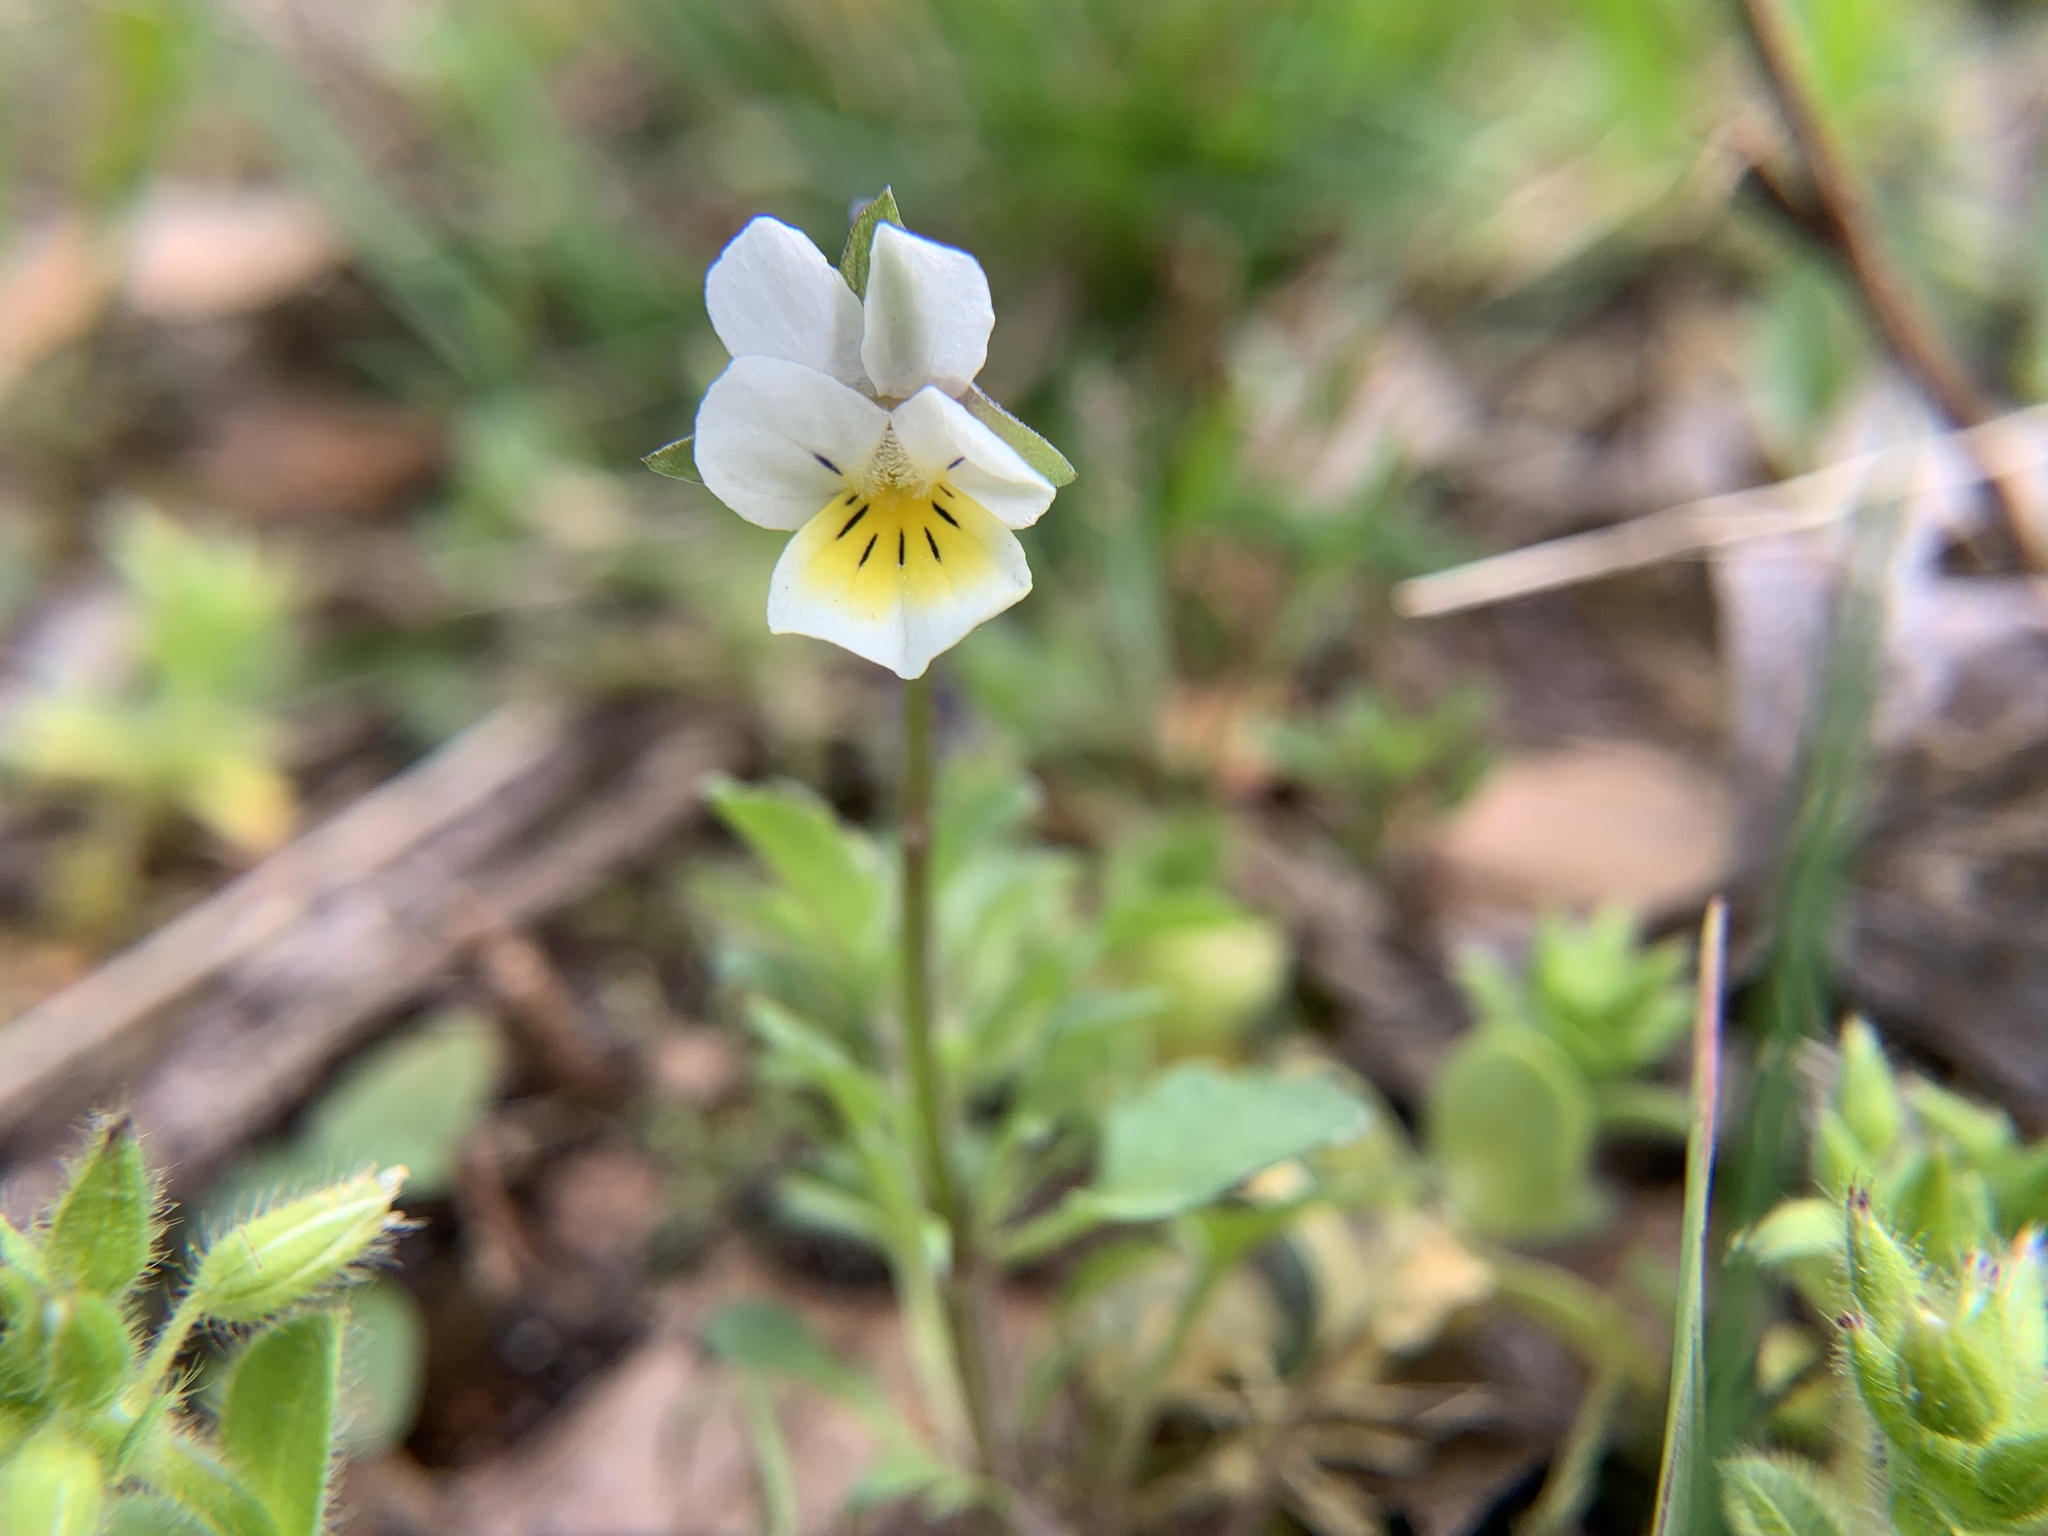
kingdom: Plantae
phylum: Tracheophyta
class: Magnoliopsida
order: Malpighiales
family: Violaceae
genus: Viola
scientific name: Viola arvensis
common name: Field pansy
